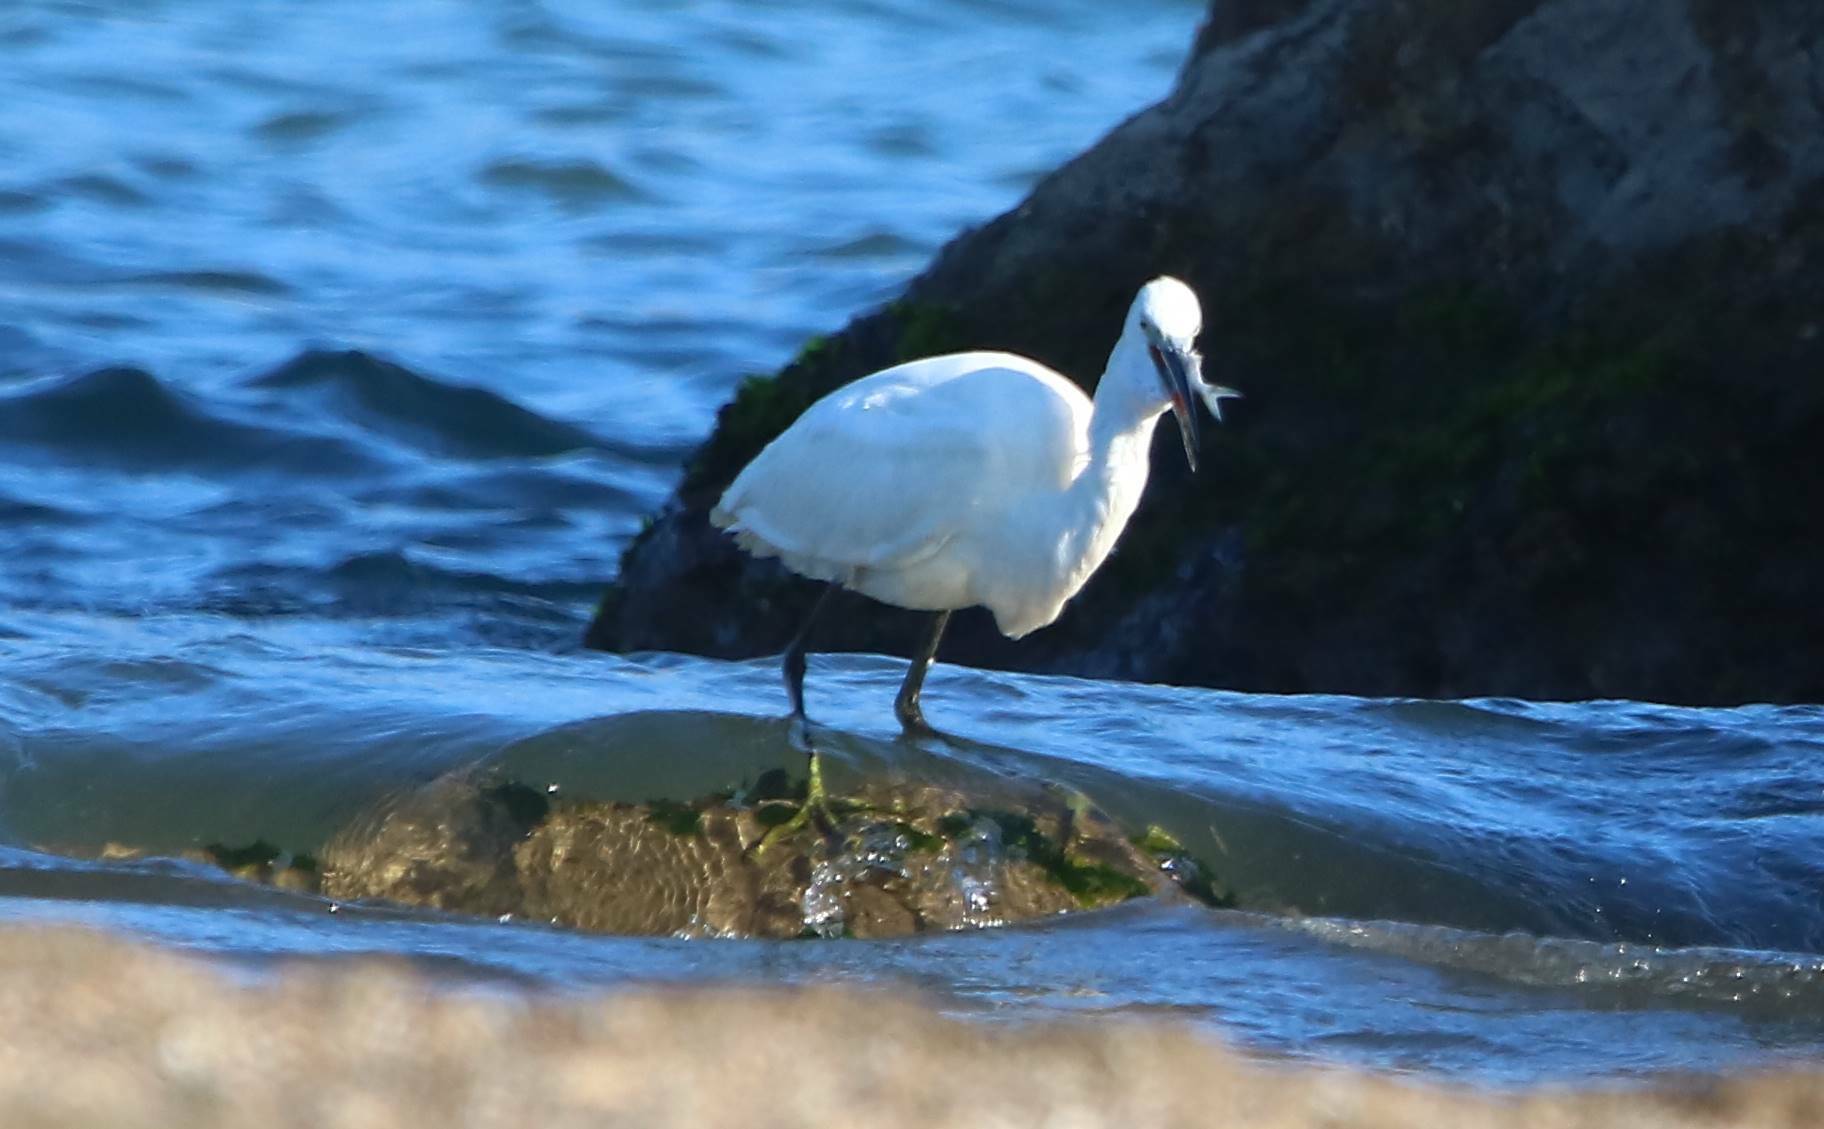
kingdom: Animalia
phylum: Chordata
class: Aves
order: Pelecaniformes
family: Ardeidae
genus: Egretta
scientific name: Egretta garzetta
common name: Little egret
